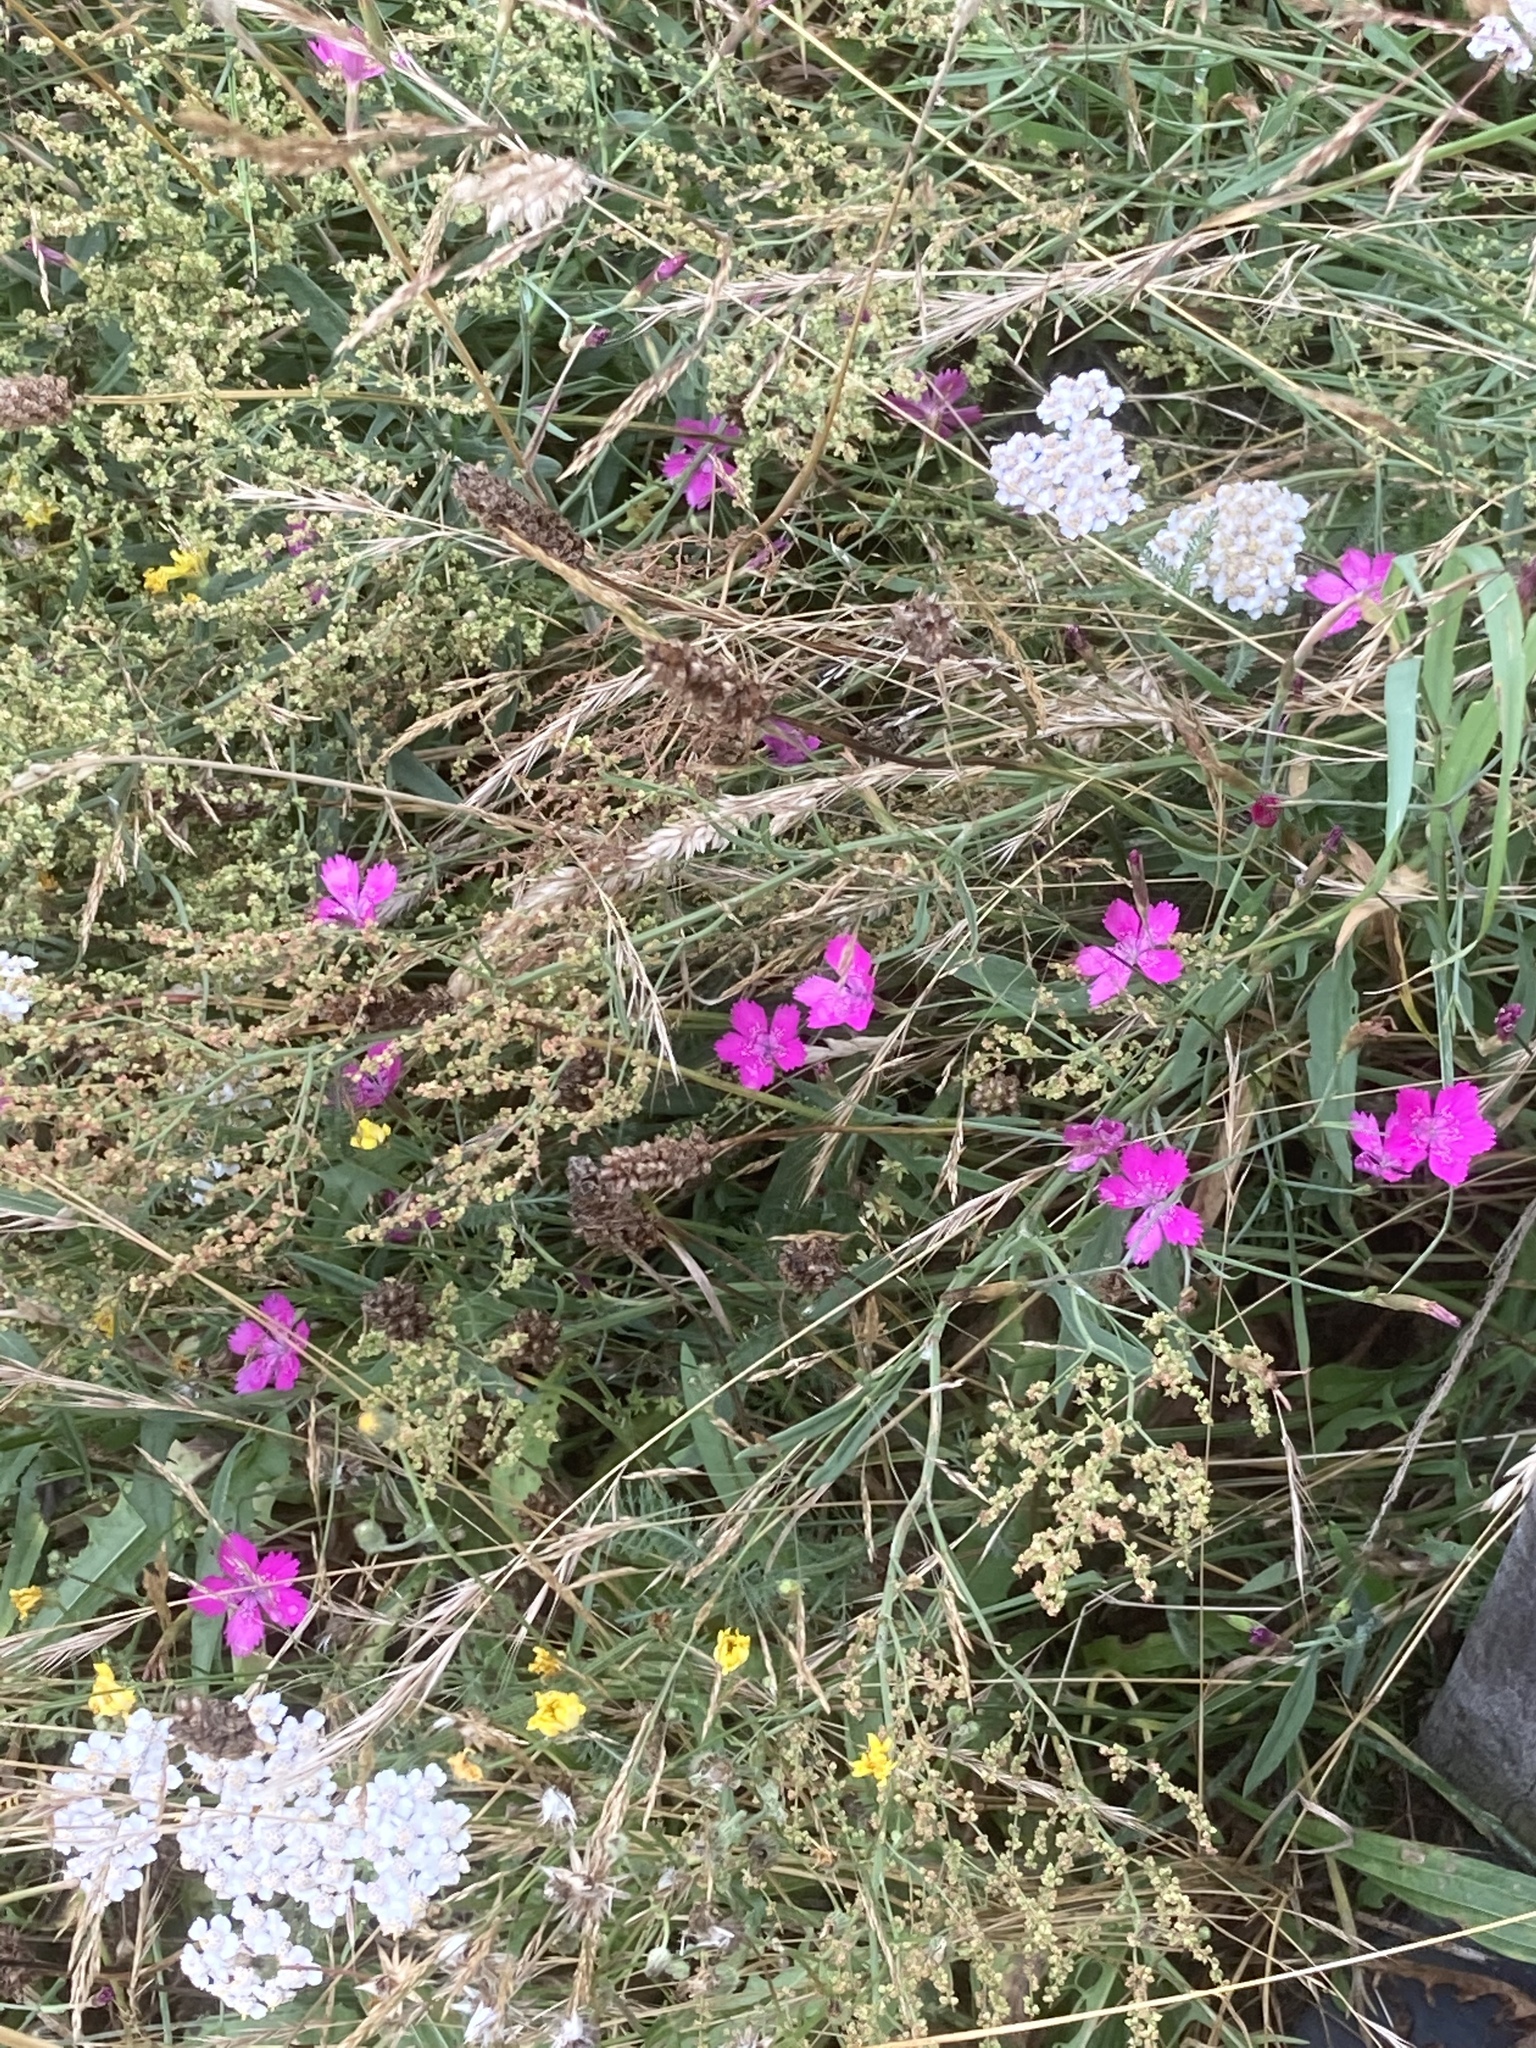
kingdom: Plantae
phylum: Tracheophyta
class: Magnoliopsida
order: Caryophyllales
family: Caryophyllaceae
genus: Dianthus
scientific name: Dianthus deltoides
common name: Maiden pink
